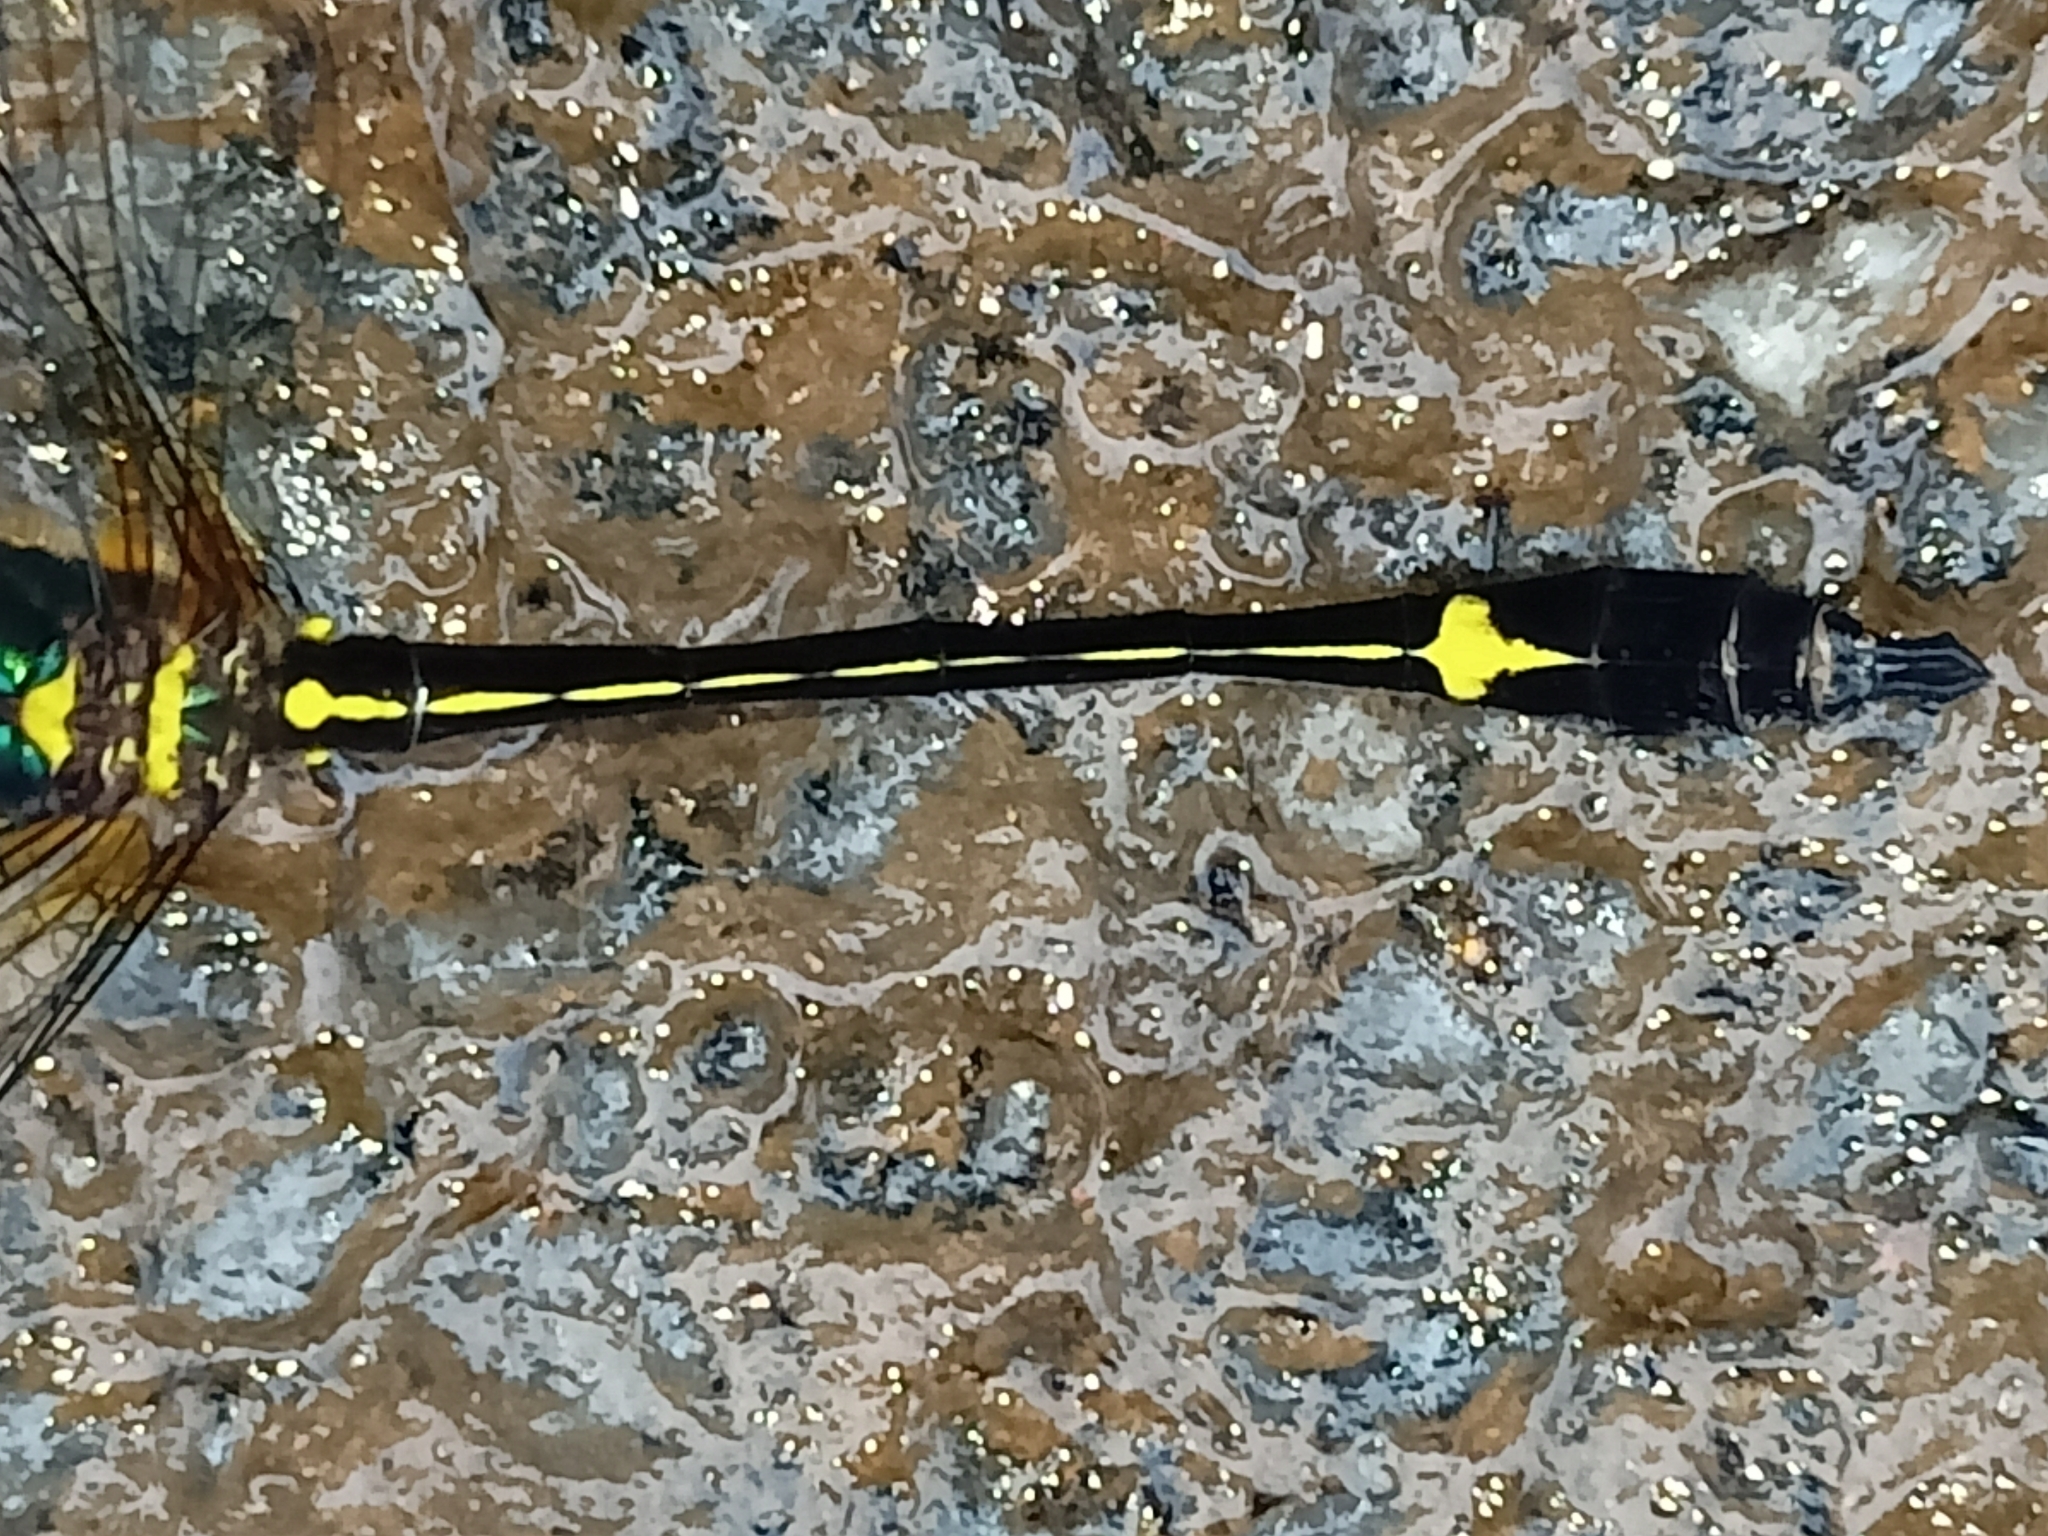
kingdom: Animalia
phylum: Arthropoda
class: Insecta
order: Odonata
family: Corduliidae
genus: Macromidia
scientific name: Macromidia donaldi
